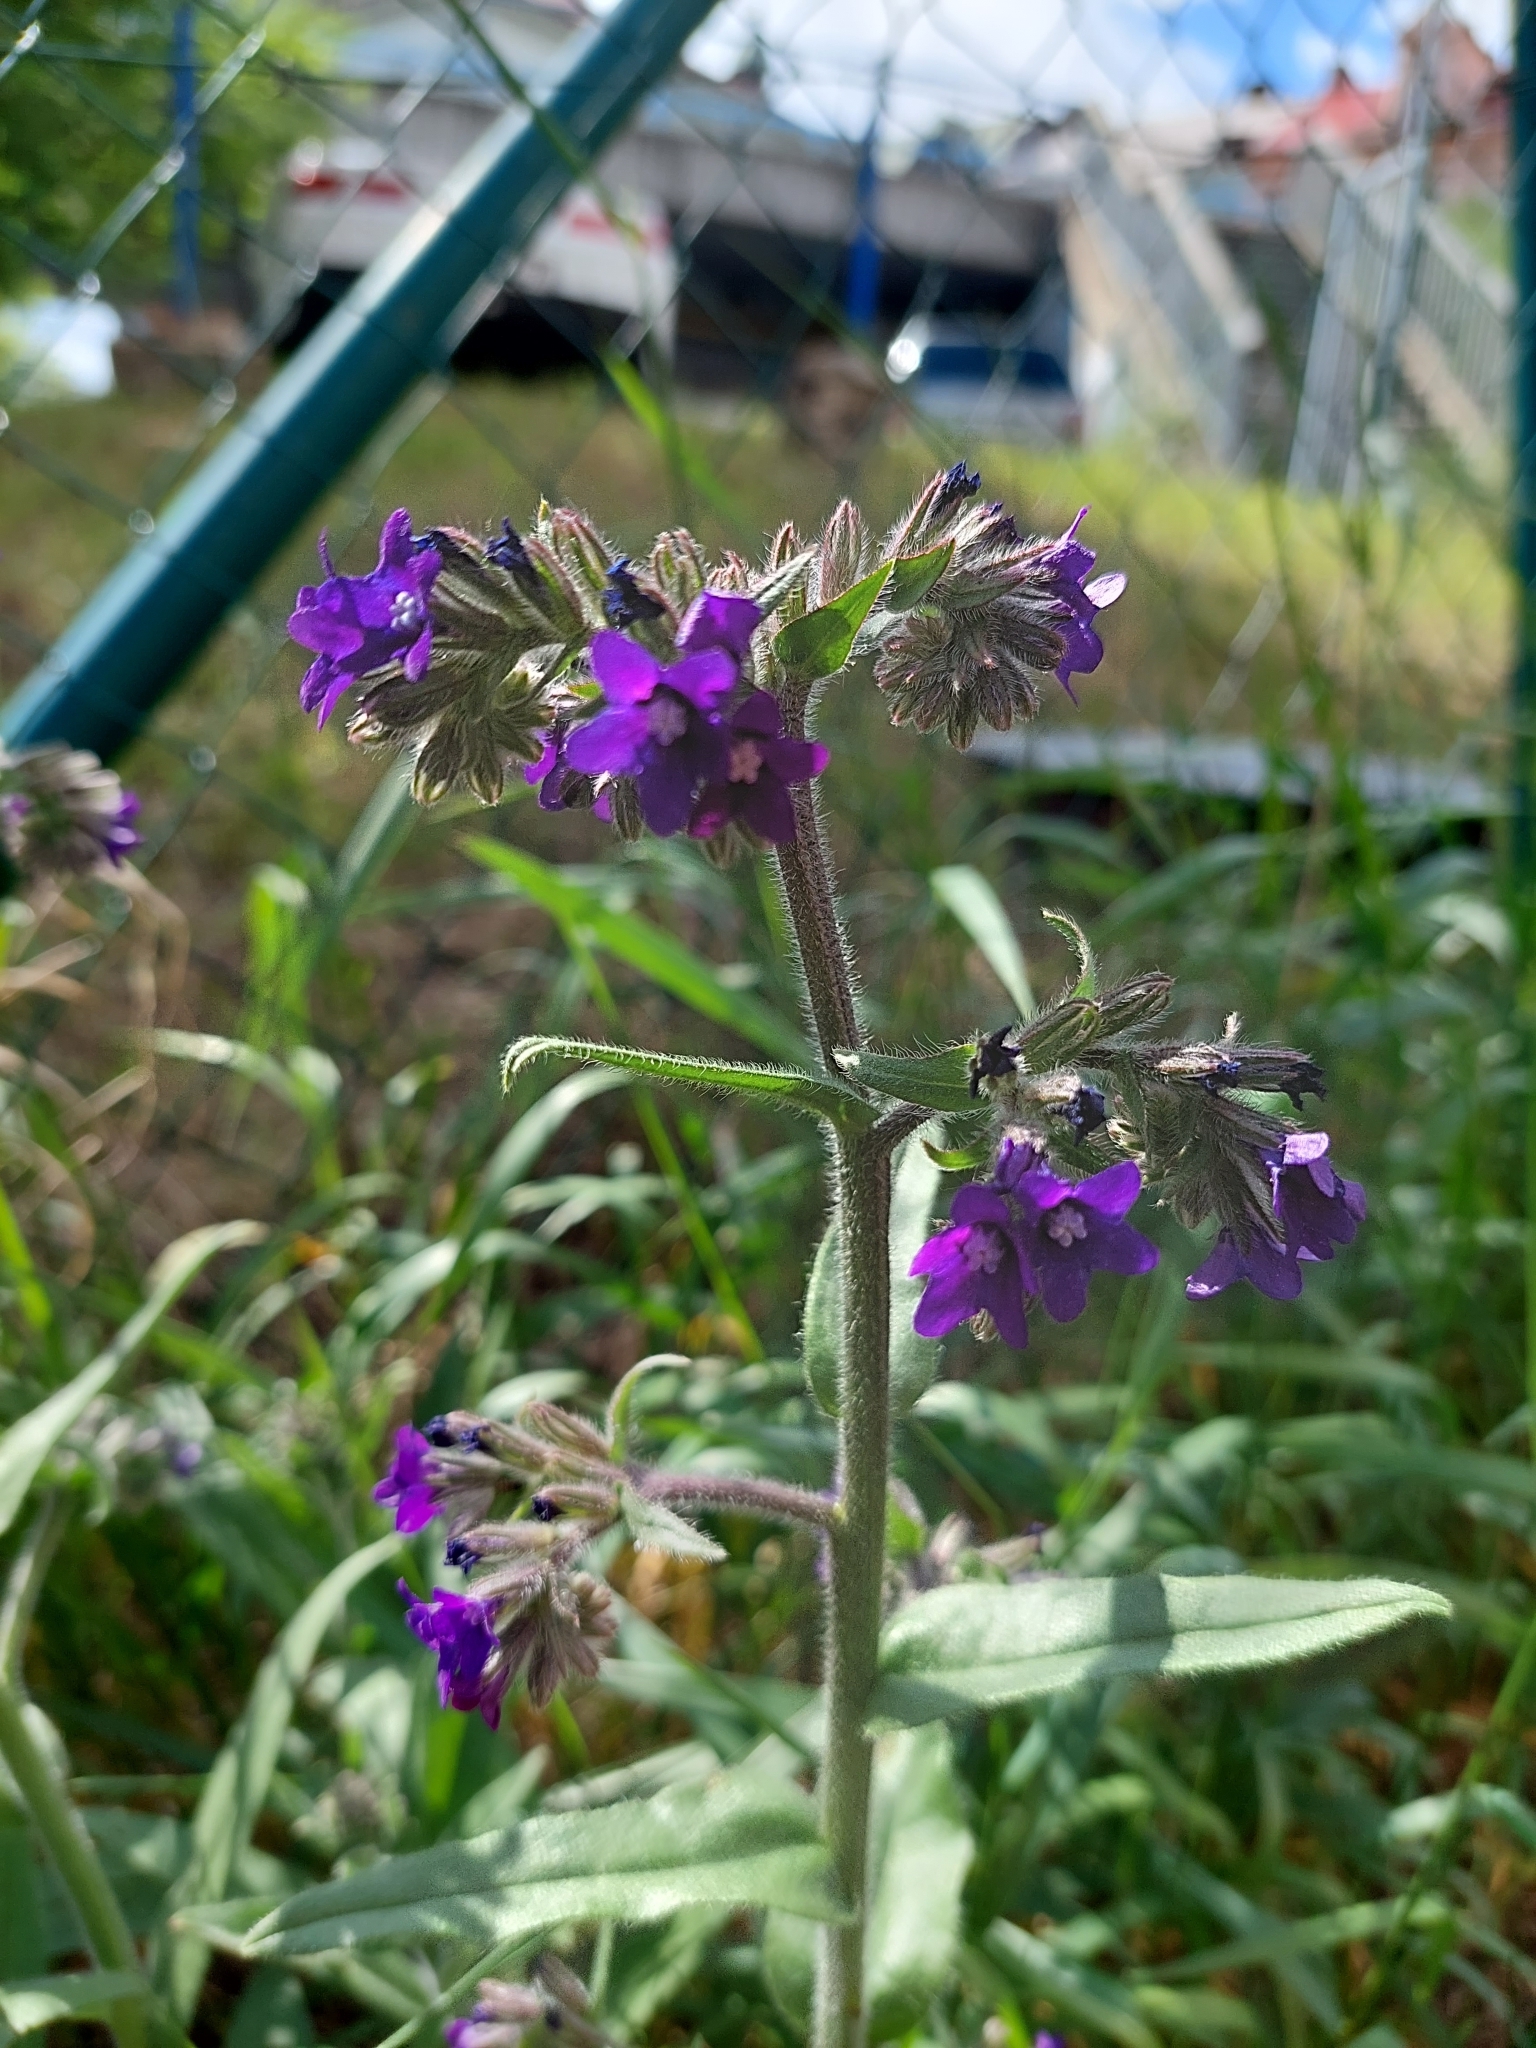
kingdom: Plantae
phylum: Tracheophyta
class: Magnoliopsida
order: Boraginales
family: Boraginaceae
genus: Anchusa
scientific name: Anchusa officinalis
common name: Alkanet
